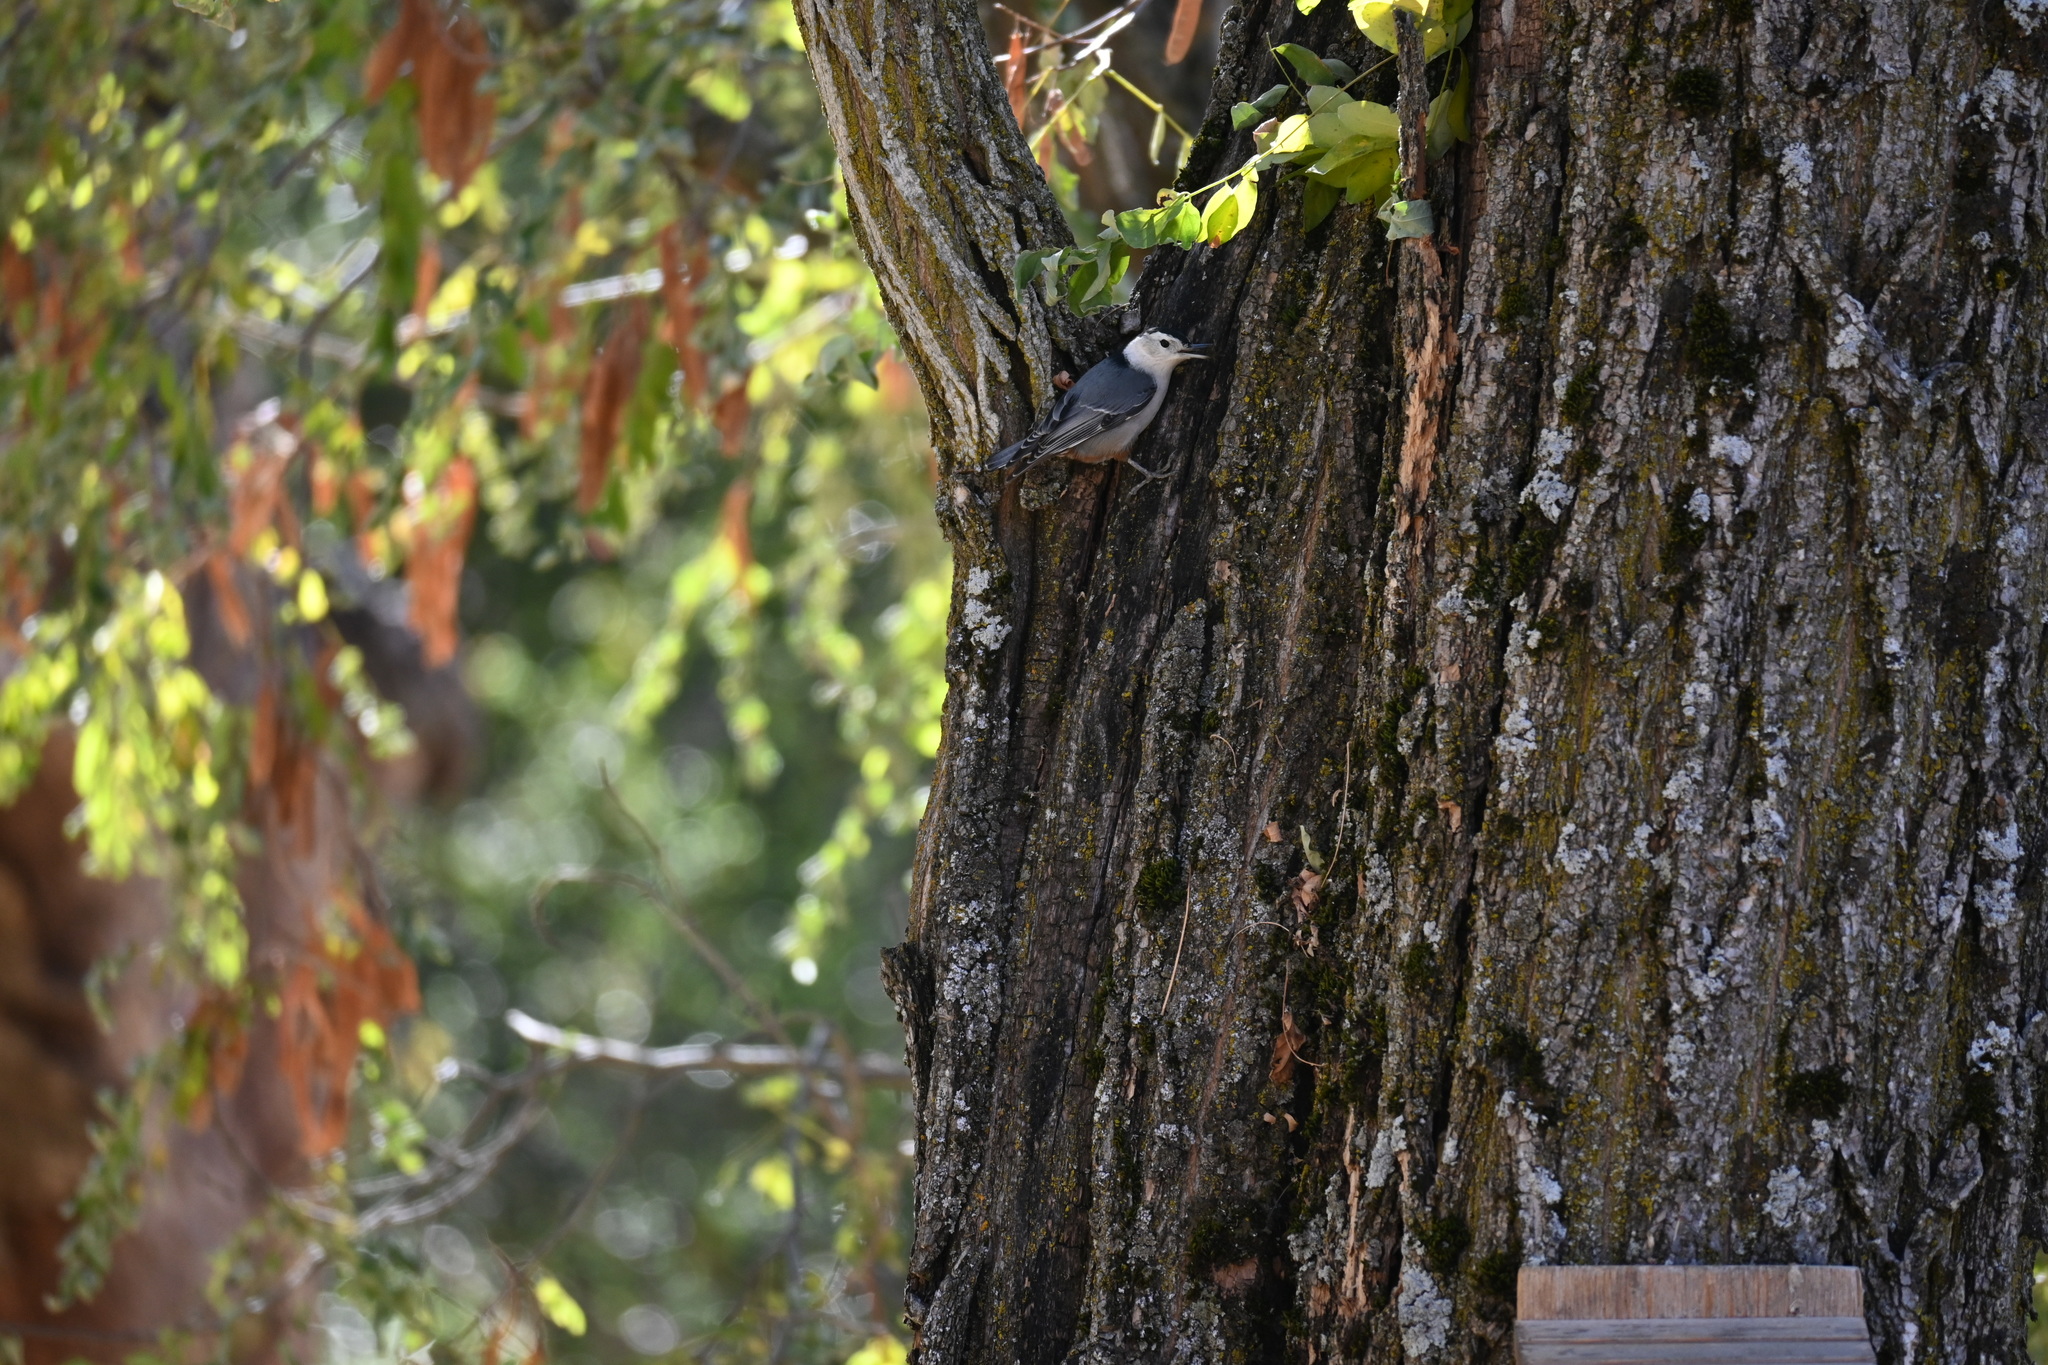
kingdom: Animalia
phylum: Chordata
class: Aves
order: Passeriformes
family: Sittidae
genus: Sitta
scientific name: Sitta carolinensis
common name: White-breasted nuthatch
